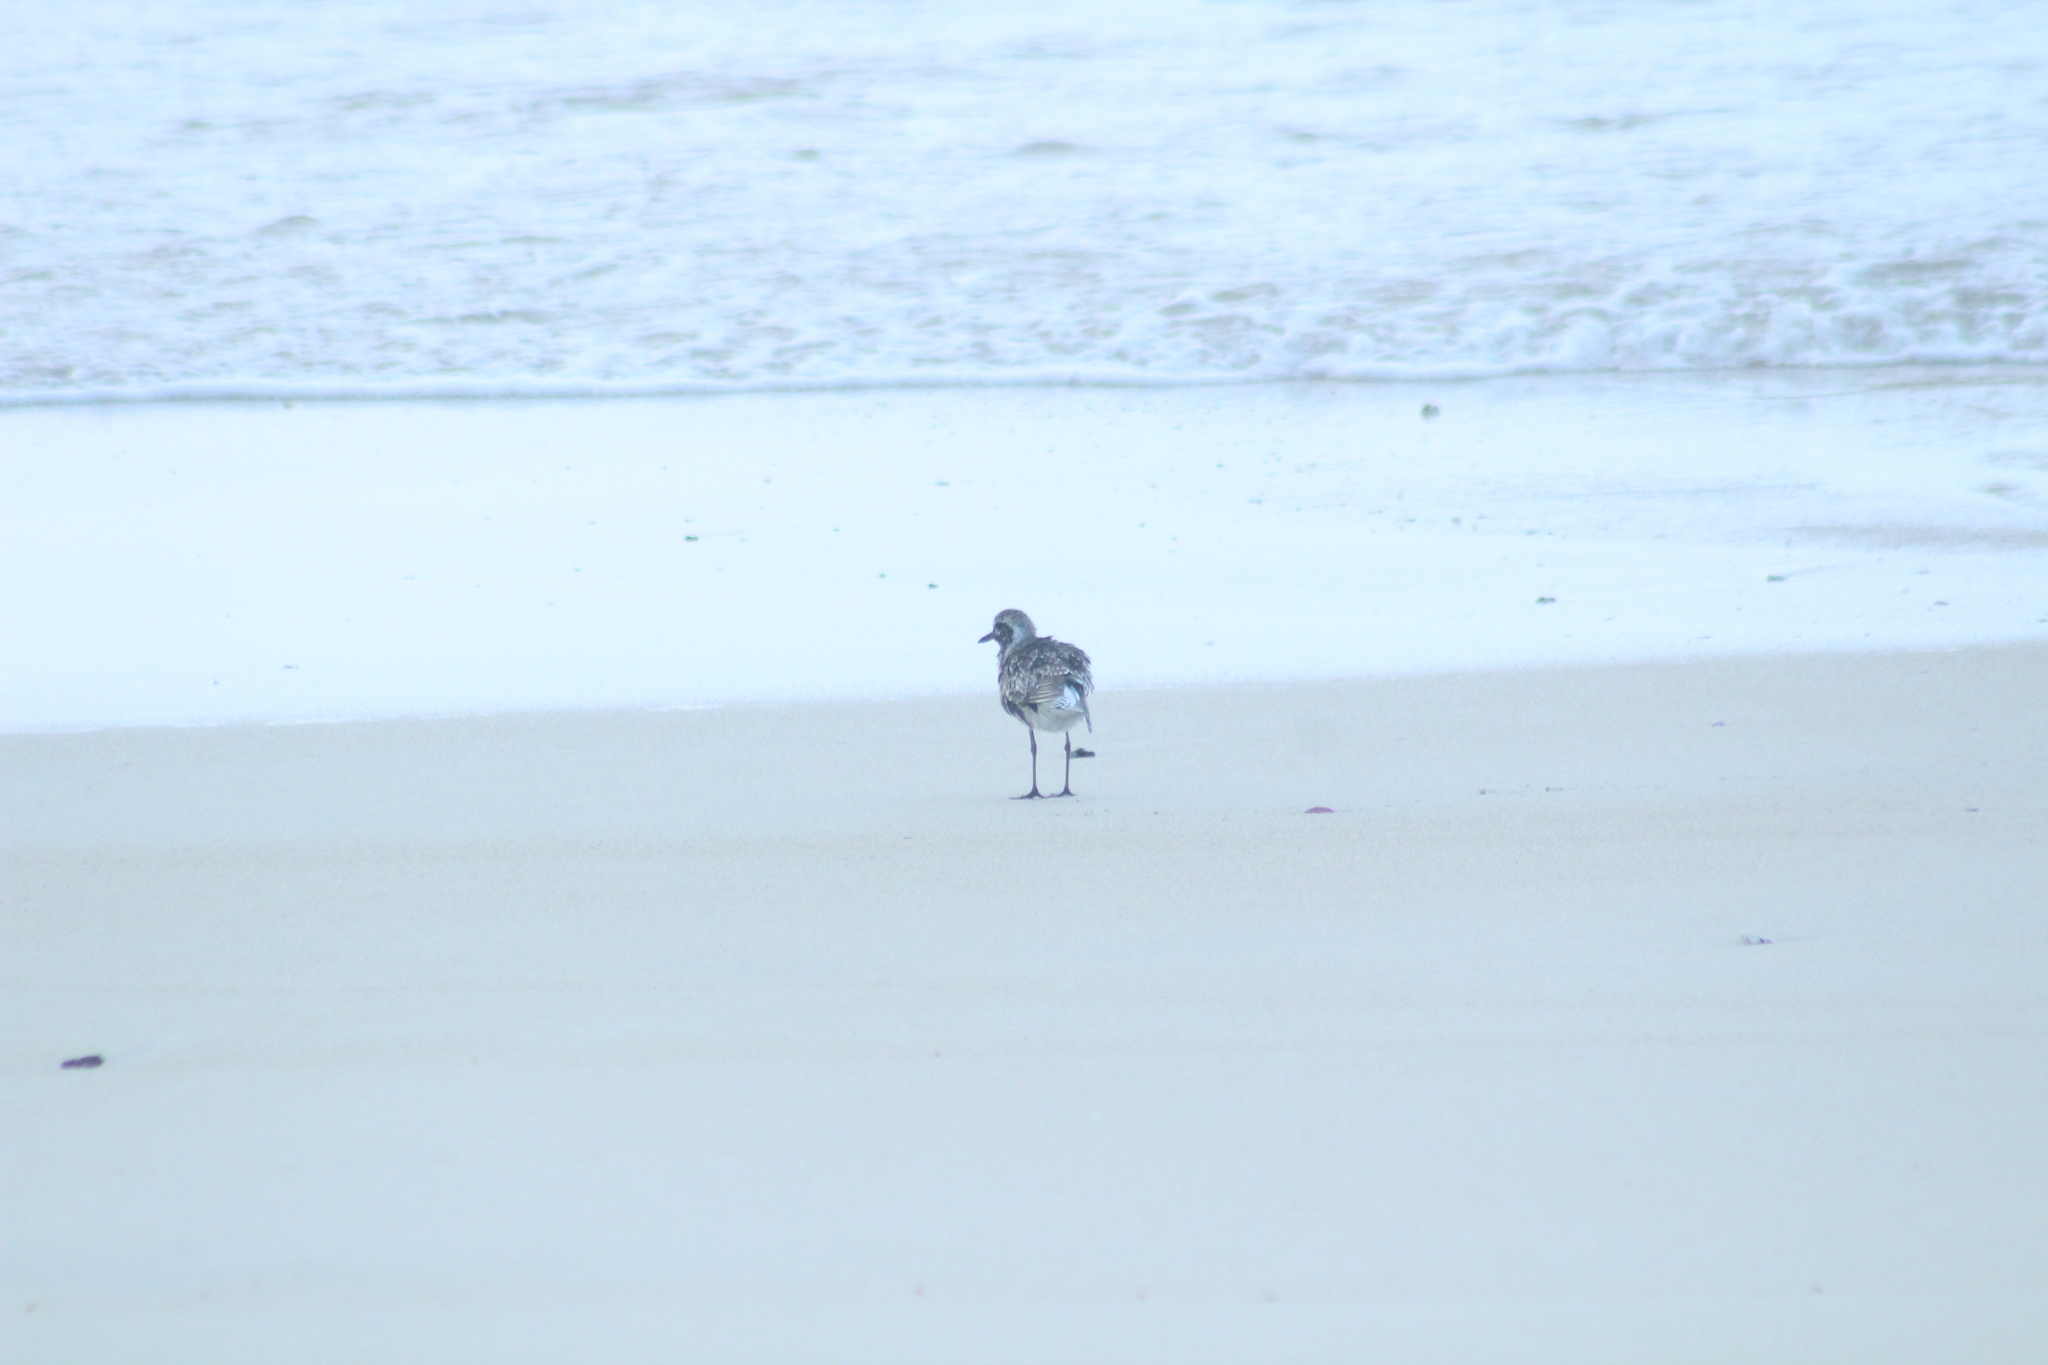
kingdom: Animalia
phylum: Chordata
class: Aves
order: Charadriiformes
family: Charadriidae
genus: Pluvialis
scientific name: Pluvialis squatarola
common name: Grey plover
